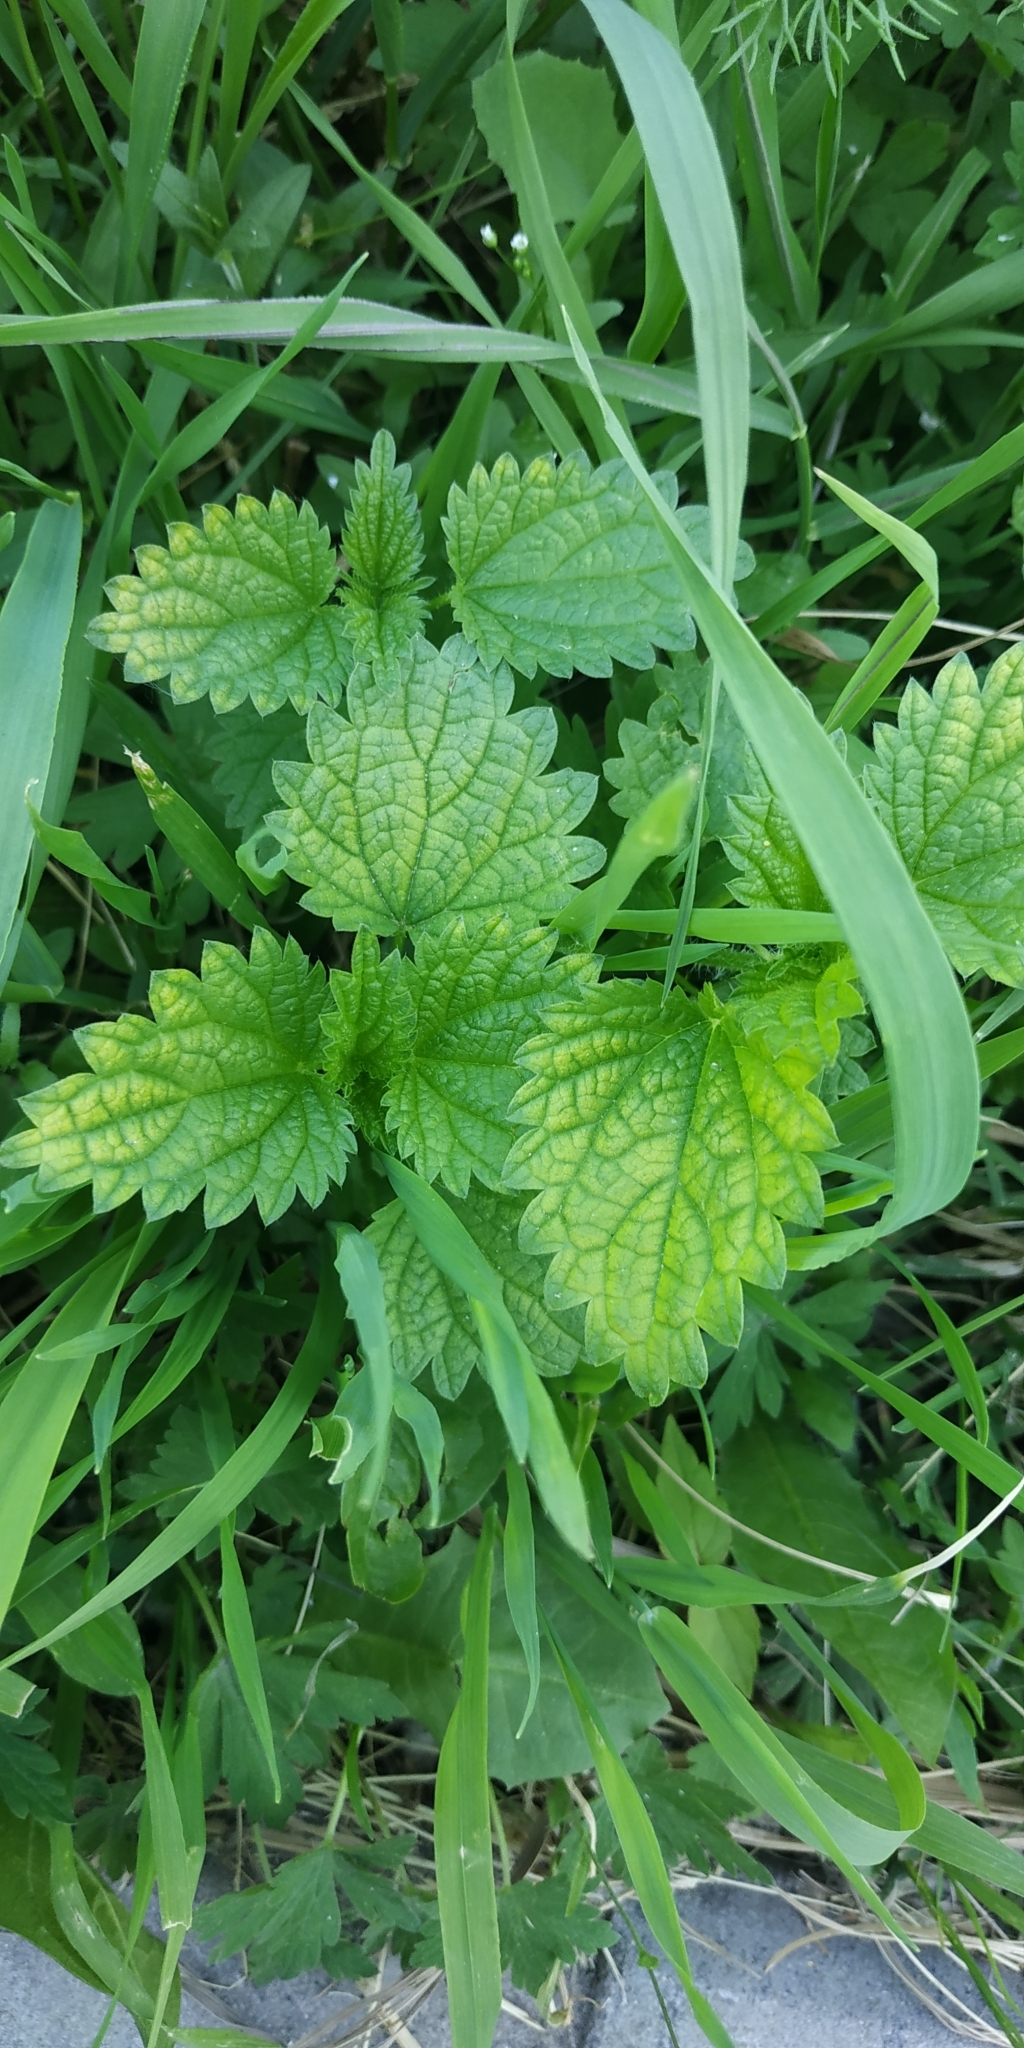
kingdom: Plantae
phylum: Tracheophyta
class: Magnoliopsida
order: Rosales
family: Urticaceae
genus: Urtica
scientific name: Urtica dioica
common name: Common nettle
